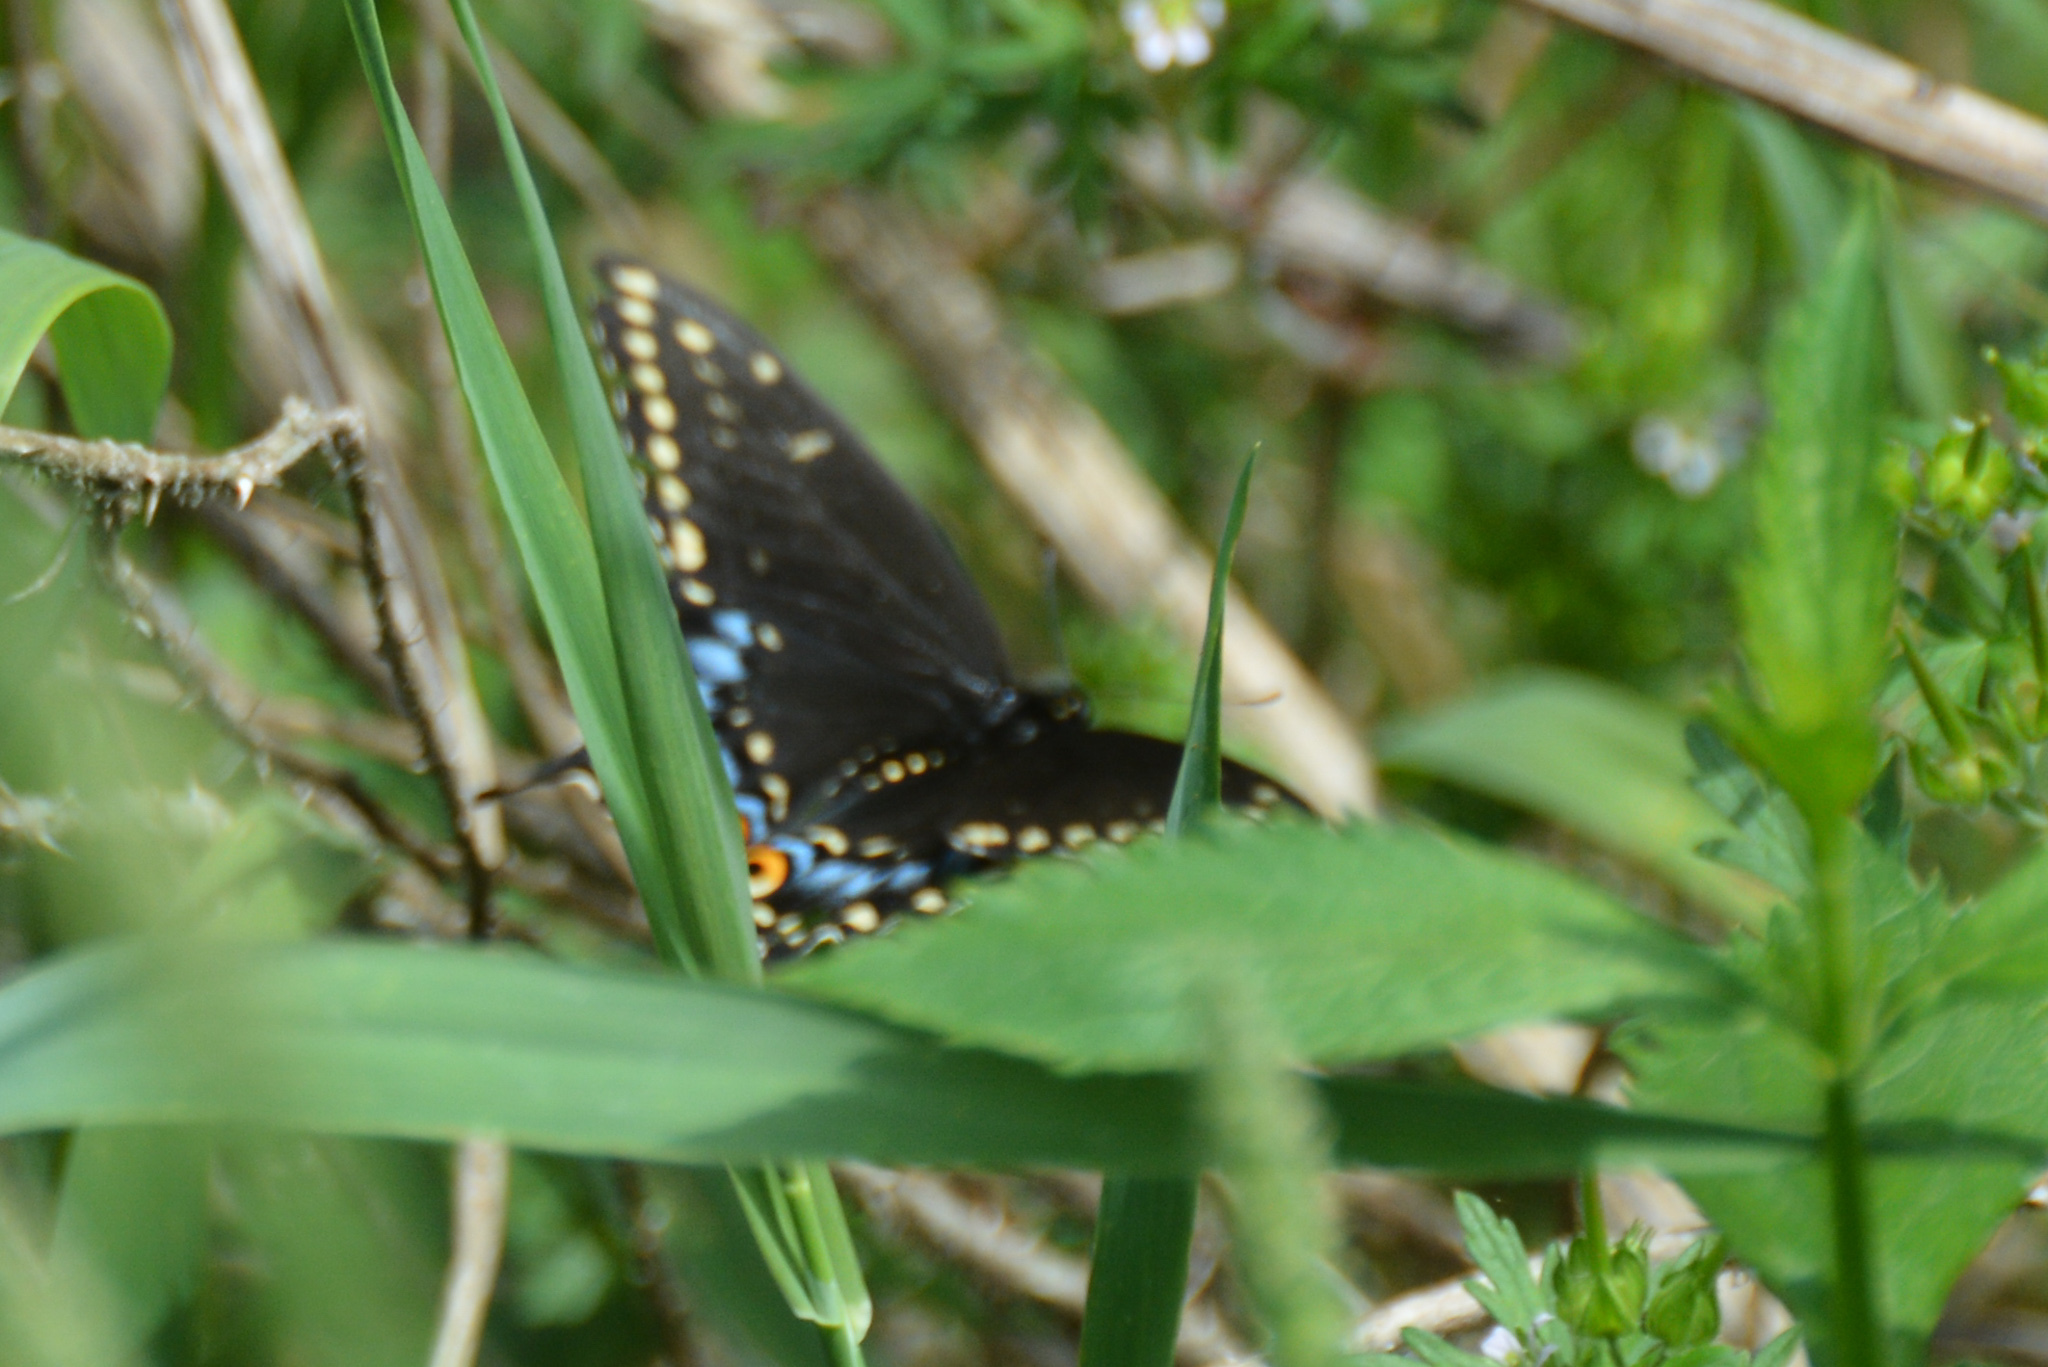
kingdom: Animalia
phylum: Arthropoda
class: Insecta
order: Lepidoptera
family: Papilionidae
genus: Papilio
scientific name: Papilio polyxenes
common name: Black swallowtail
